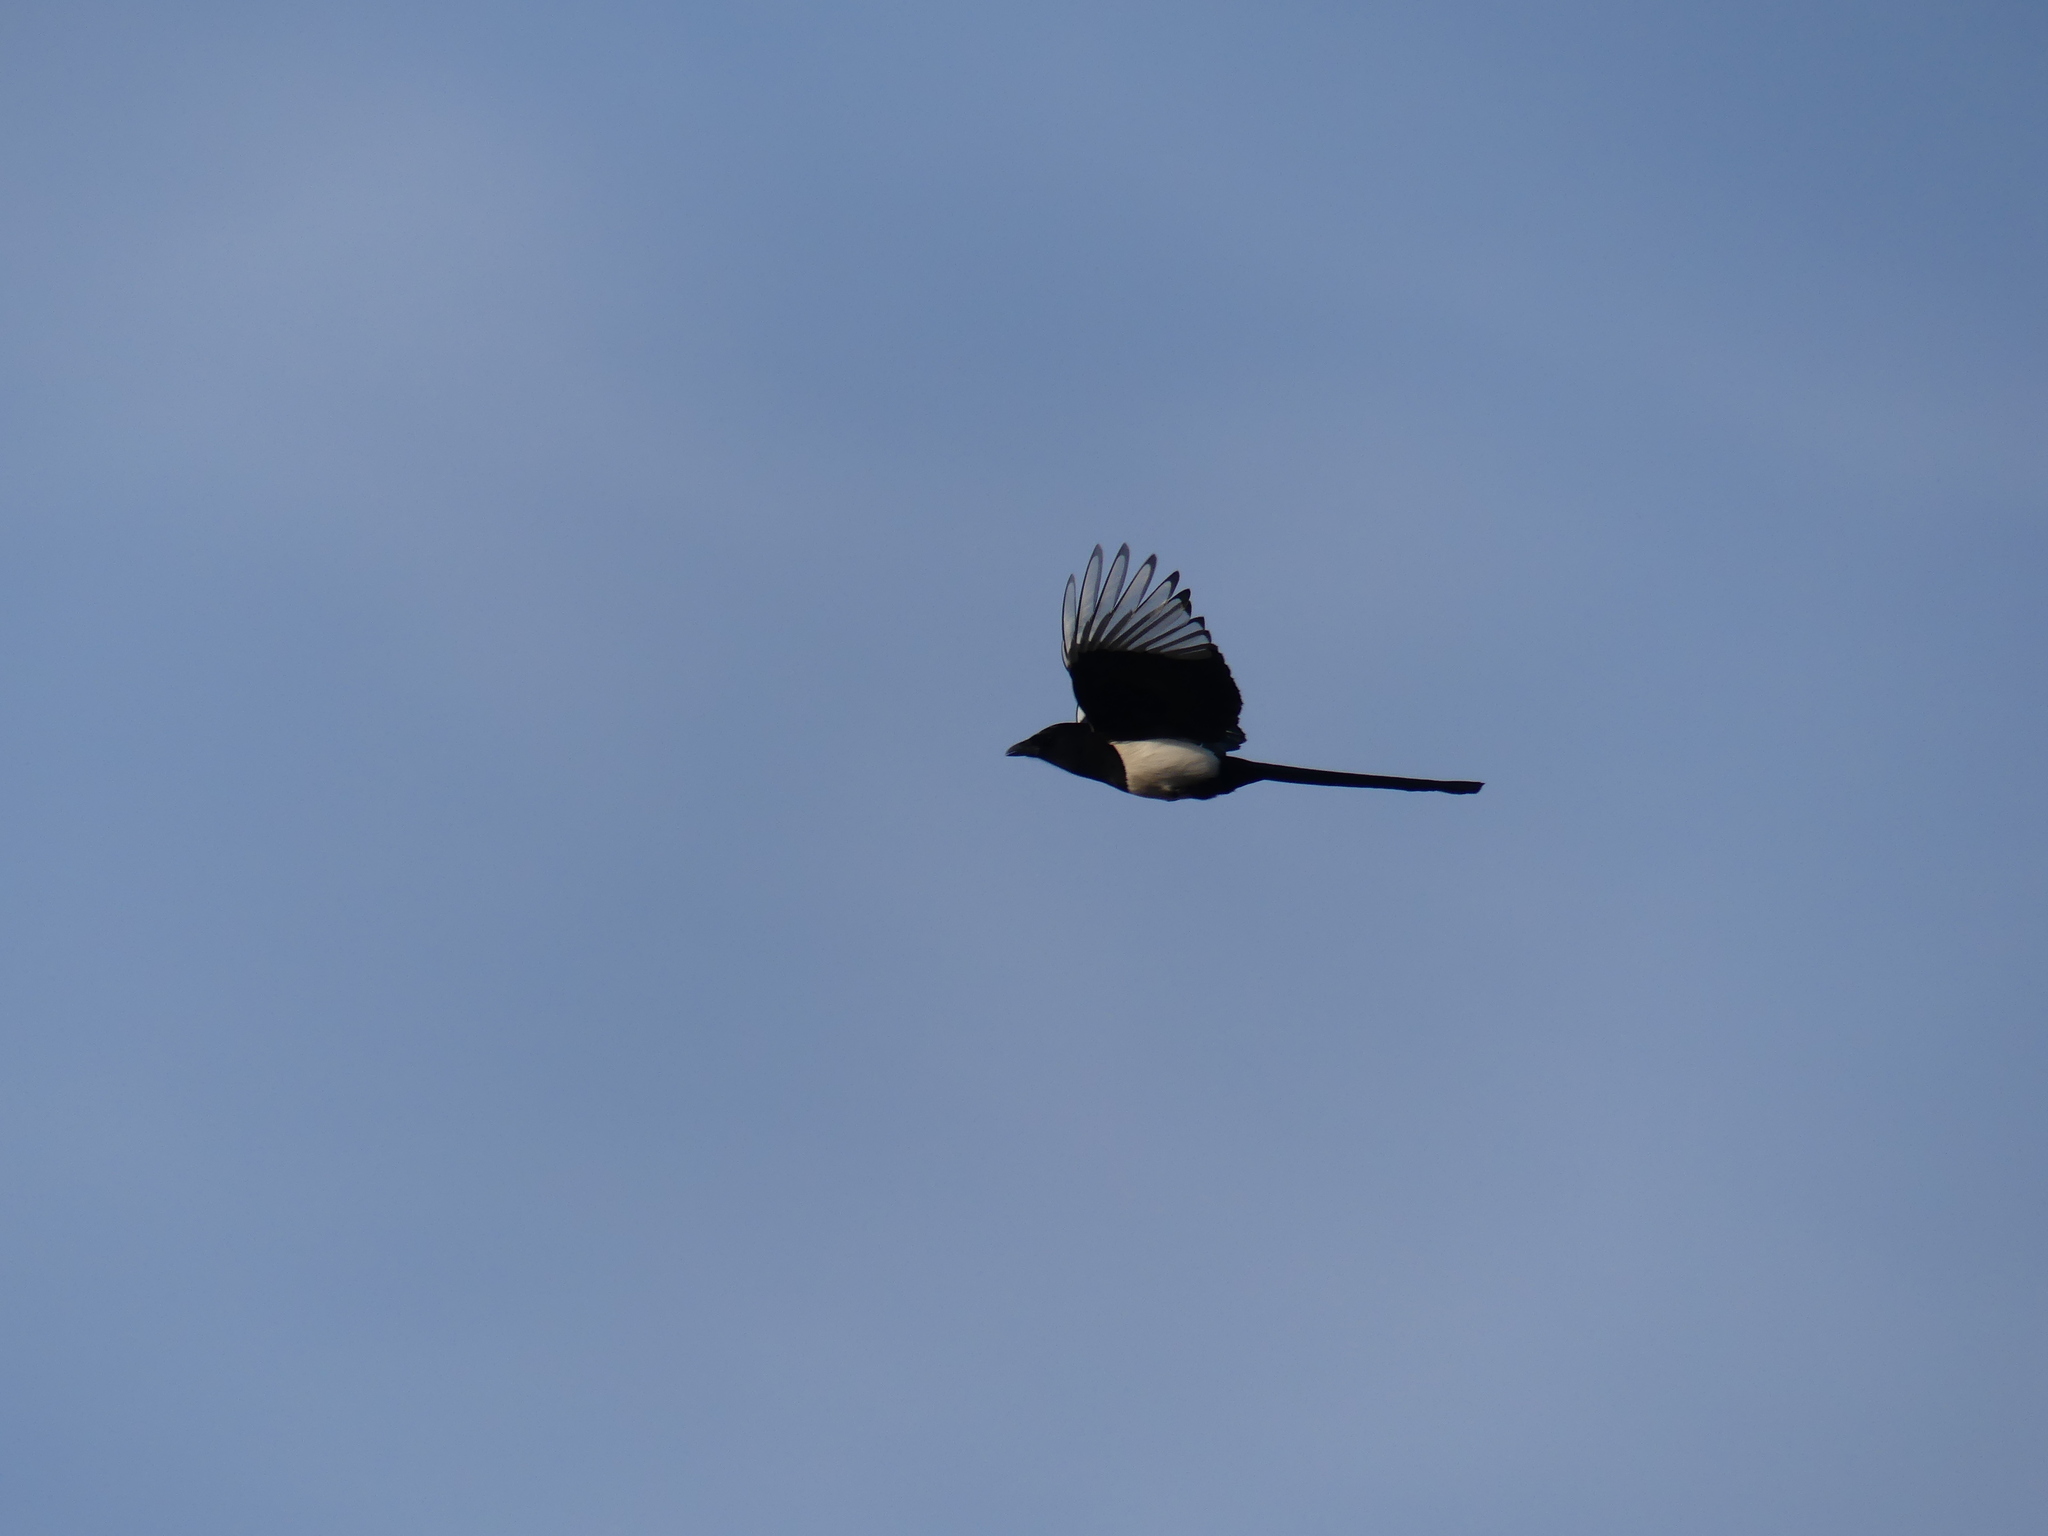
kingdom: Animalia
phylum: Chordata
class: Aves
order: Passeriformes
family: Corvidae
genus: Pica
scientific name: Pica pica
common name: Eurasian magpie
